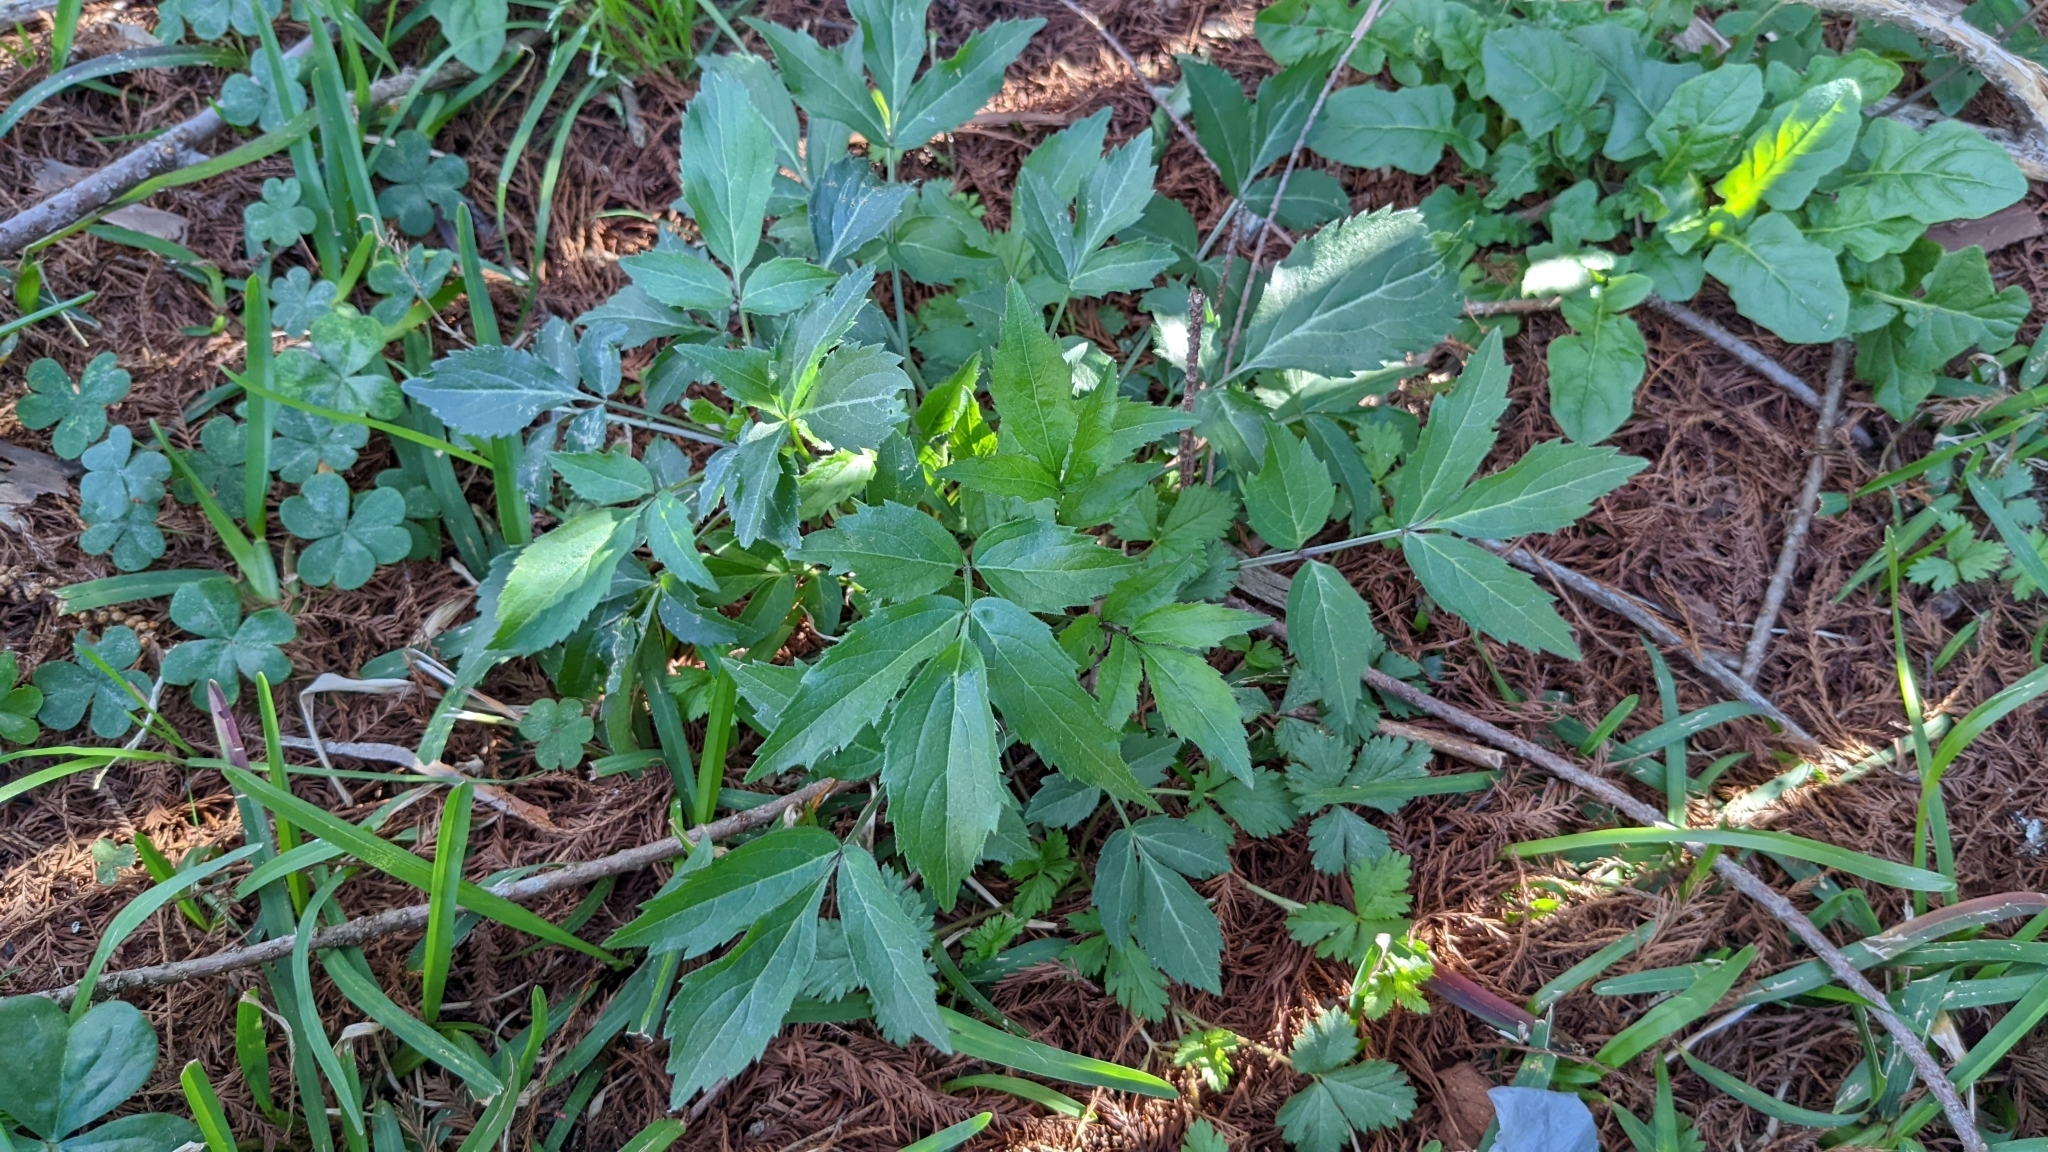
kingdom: Plantae
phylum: Tracheophyta
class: Magnoliopsida
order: Dipsacales
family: Viburnaceae
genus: Sambucus
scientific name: Sambucus canadensis
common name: American elder
